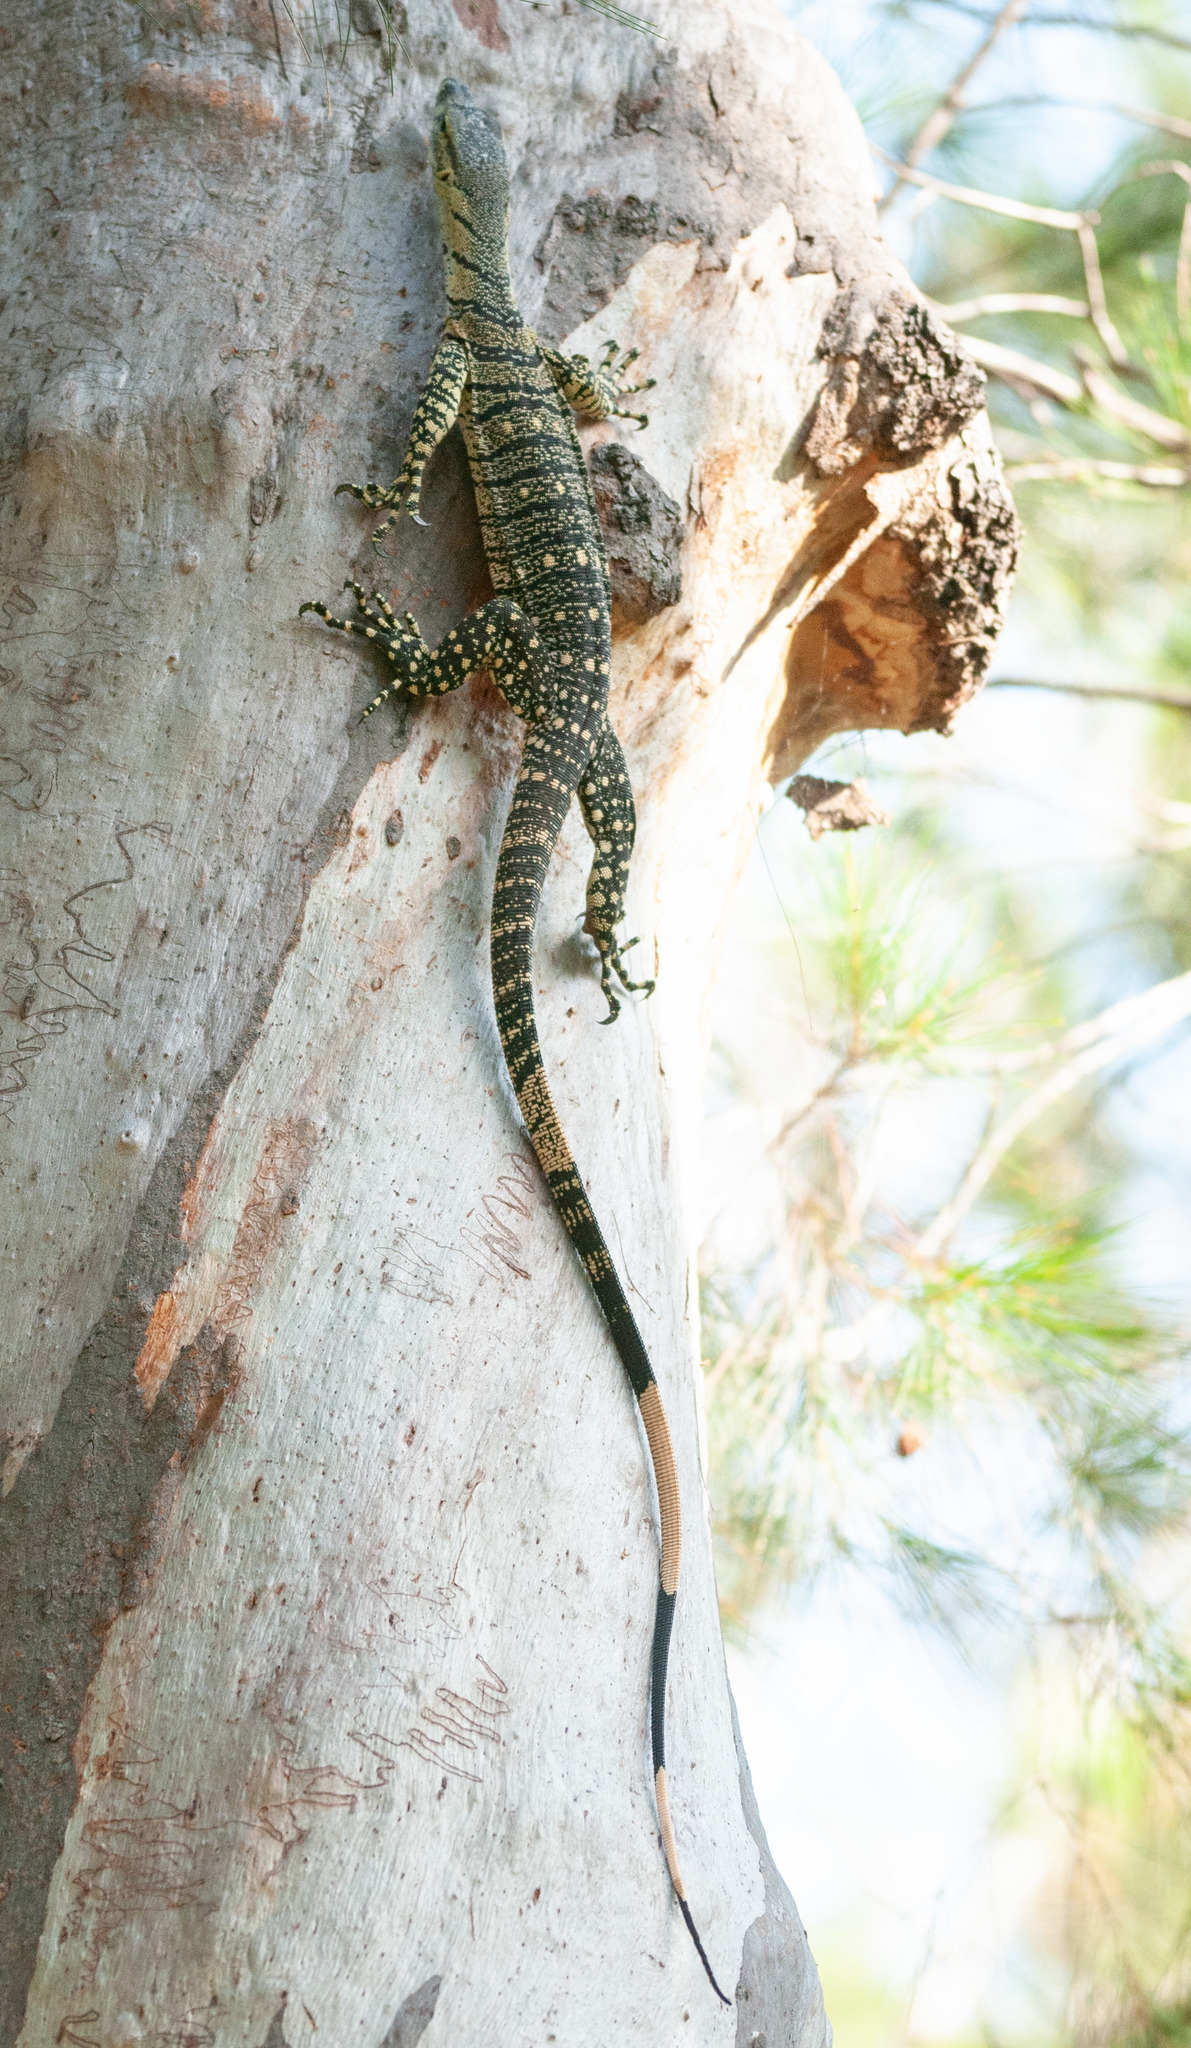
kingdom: Animalia
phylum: Chordata
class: Squamata
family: Varanidae
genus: Varanus
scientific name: Varanus varius
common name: Lace monitor
